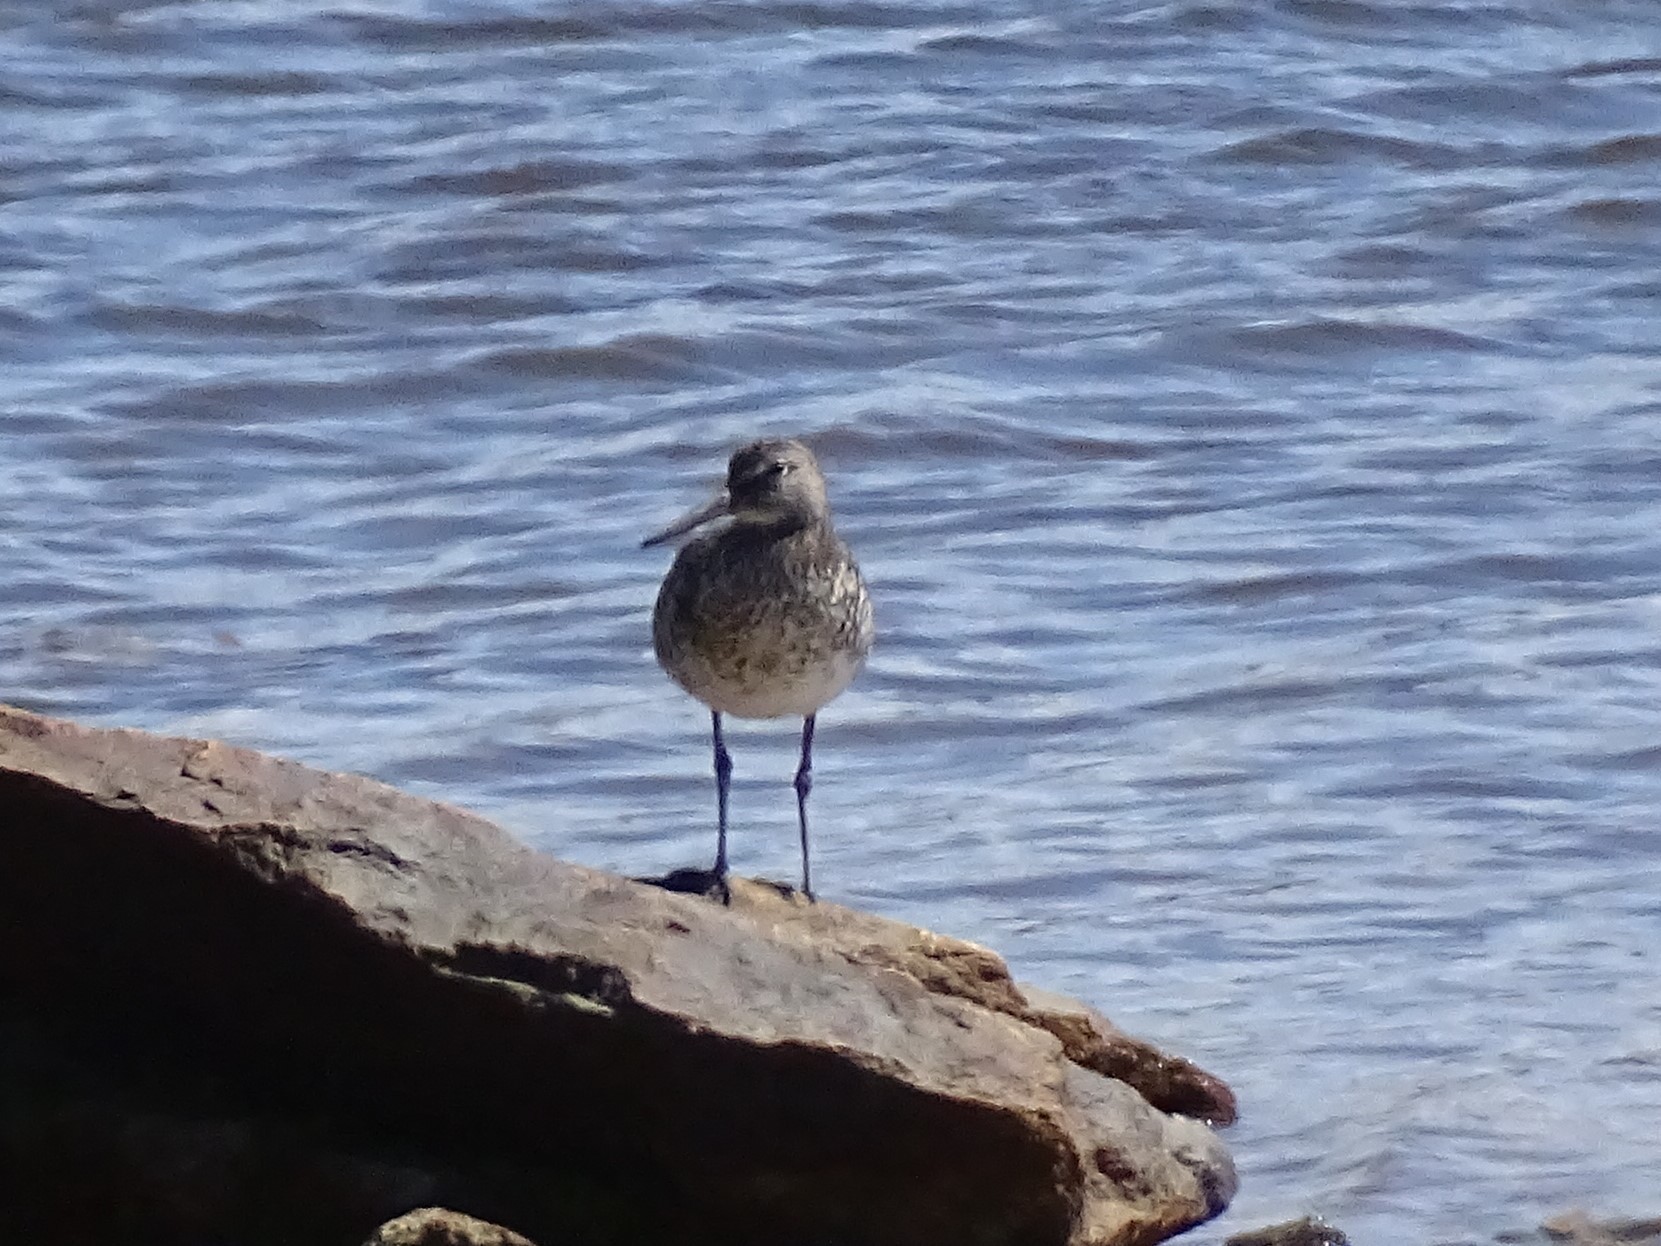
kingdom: Animalia
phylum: Chordata
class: Aves
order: Charadriiformes
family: Scolopacidae
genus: Tringa
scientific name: Tringa semipalmata
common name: Willet
